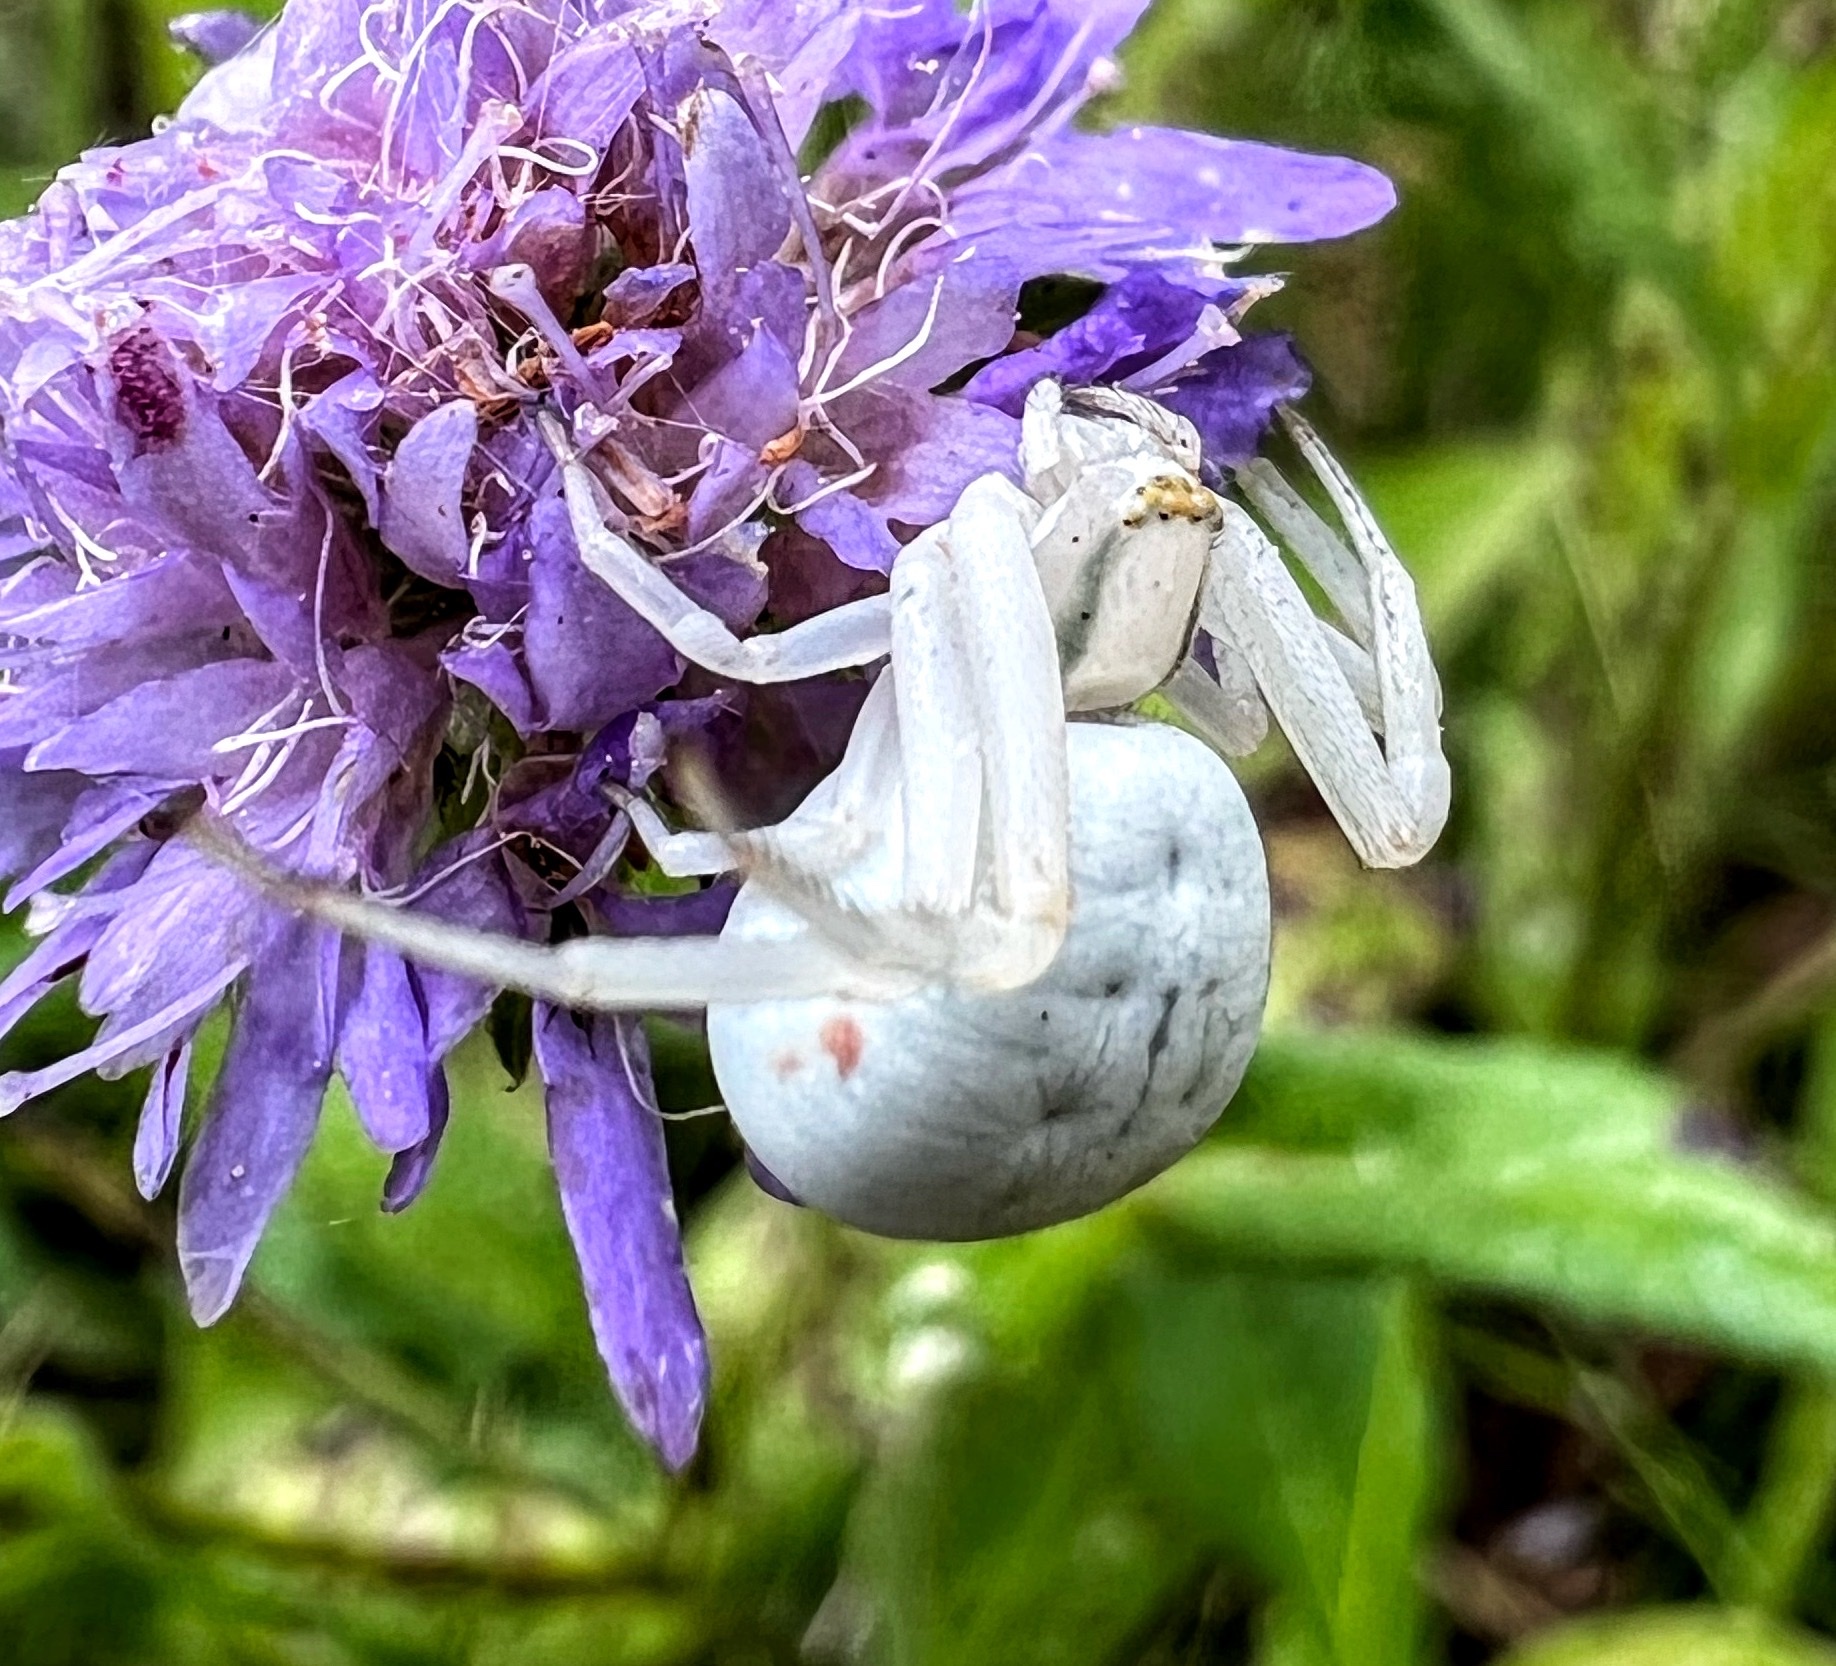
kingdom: Animalia
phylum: Arthropoda
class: Arachnida
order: Araneae
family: Thomisidae
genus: Misumena
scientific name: Misumena vatia
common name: Goldenrod crab spider
